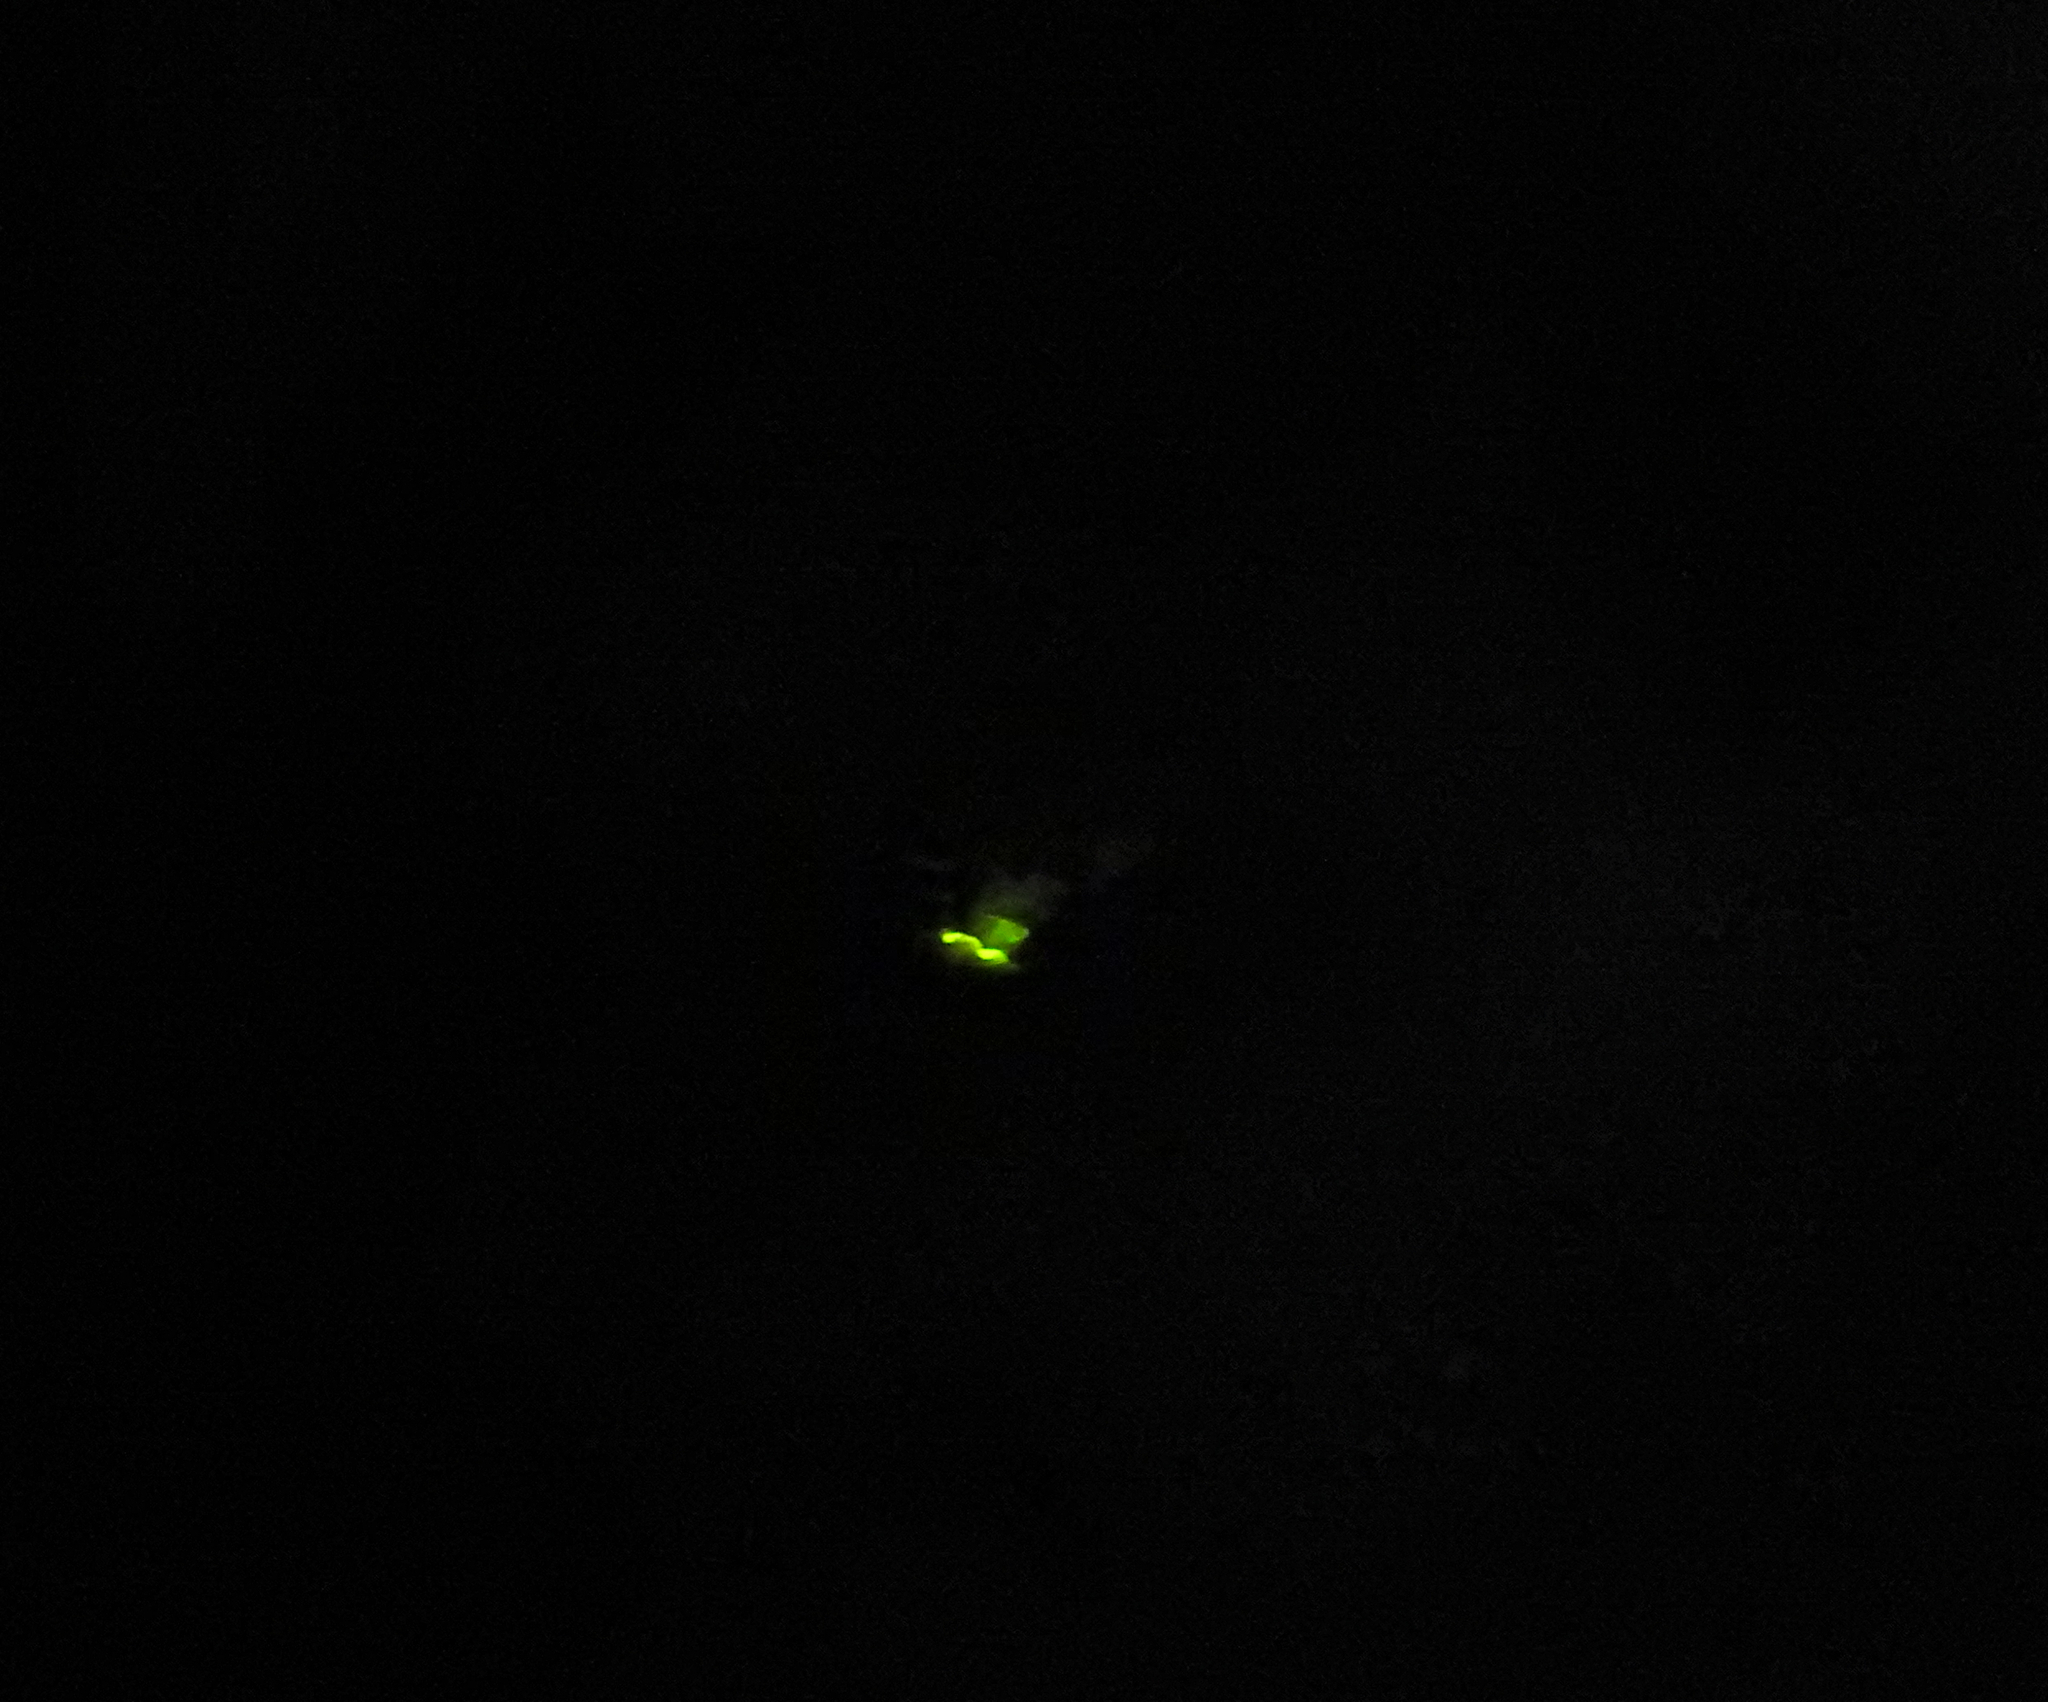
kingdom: Animalia
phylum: Arthropoda
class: Insecta
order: Coleoptera
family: Lampyridae
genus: Lampyris
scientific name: Lampyris noctiluca
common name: Glow-worm
